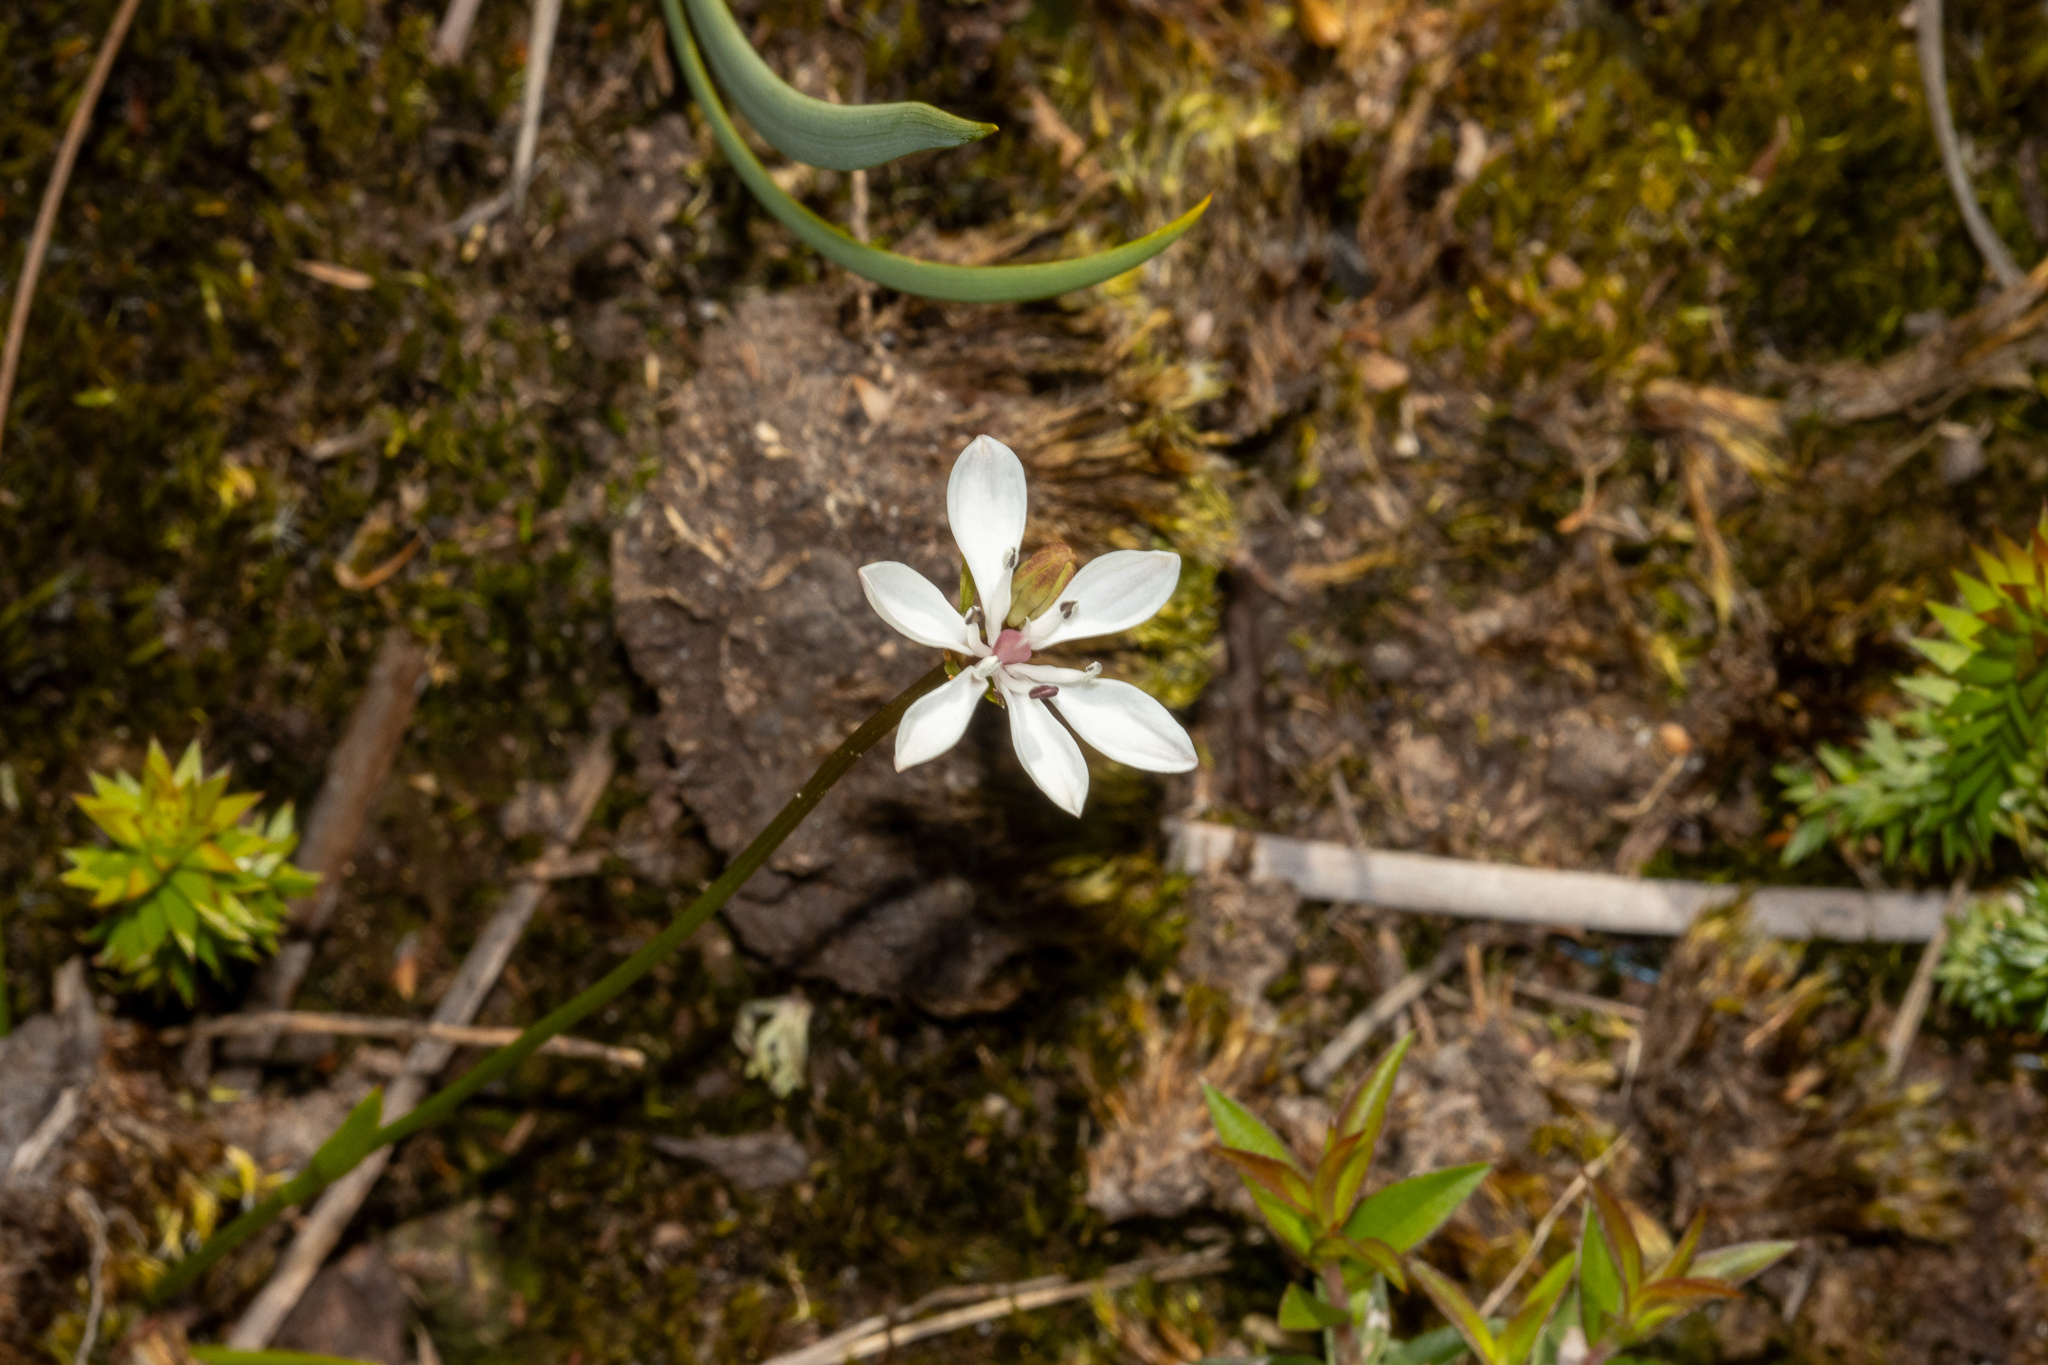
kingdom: Plantae
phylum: Tracheophyta
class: Liliopsida
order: Liliales
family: Colchicaceae
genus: Burchardia
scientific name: Burchardia umbellata
